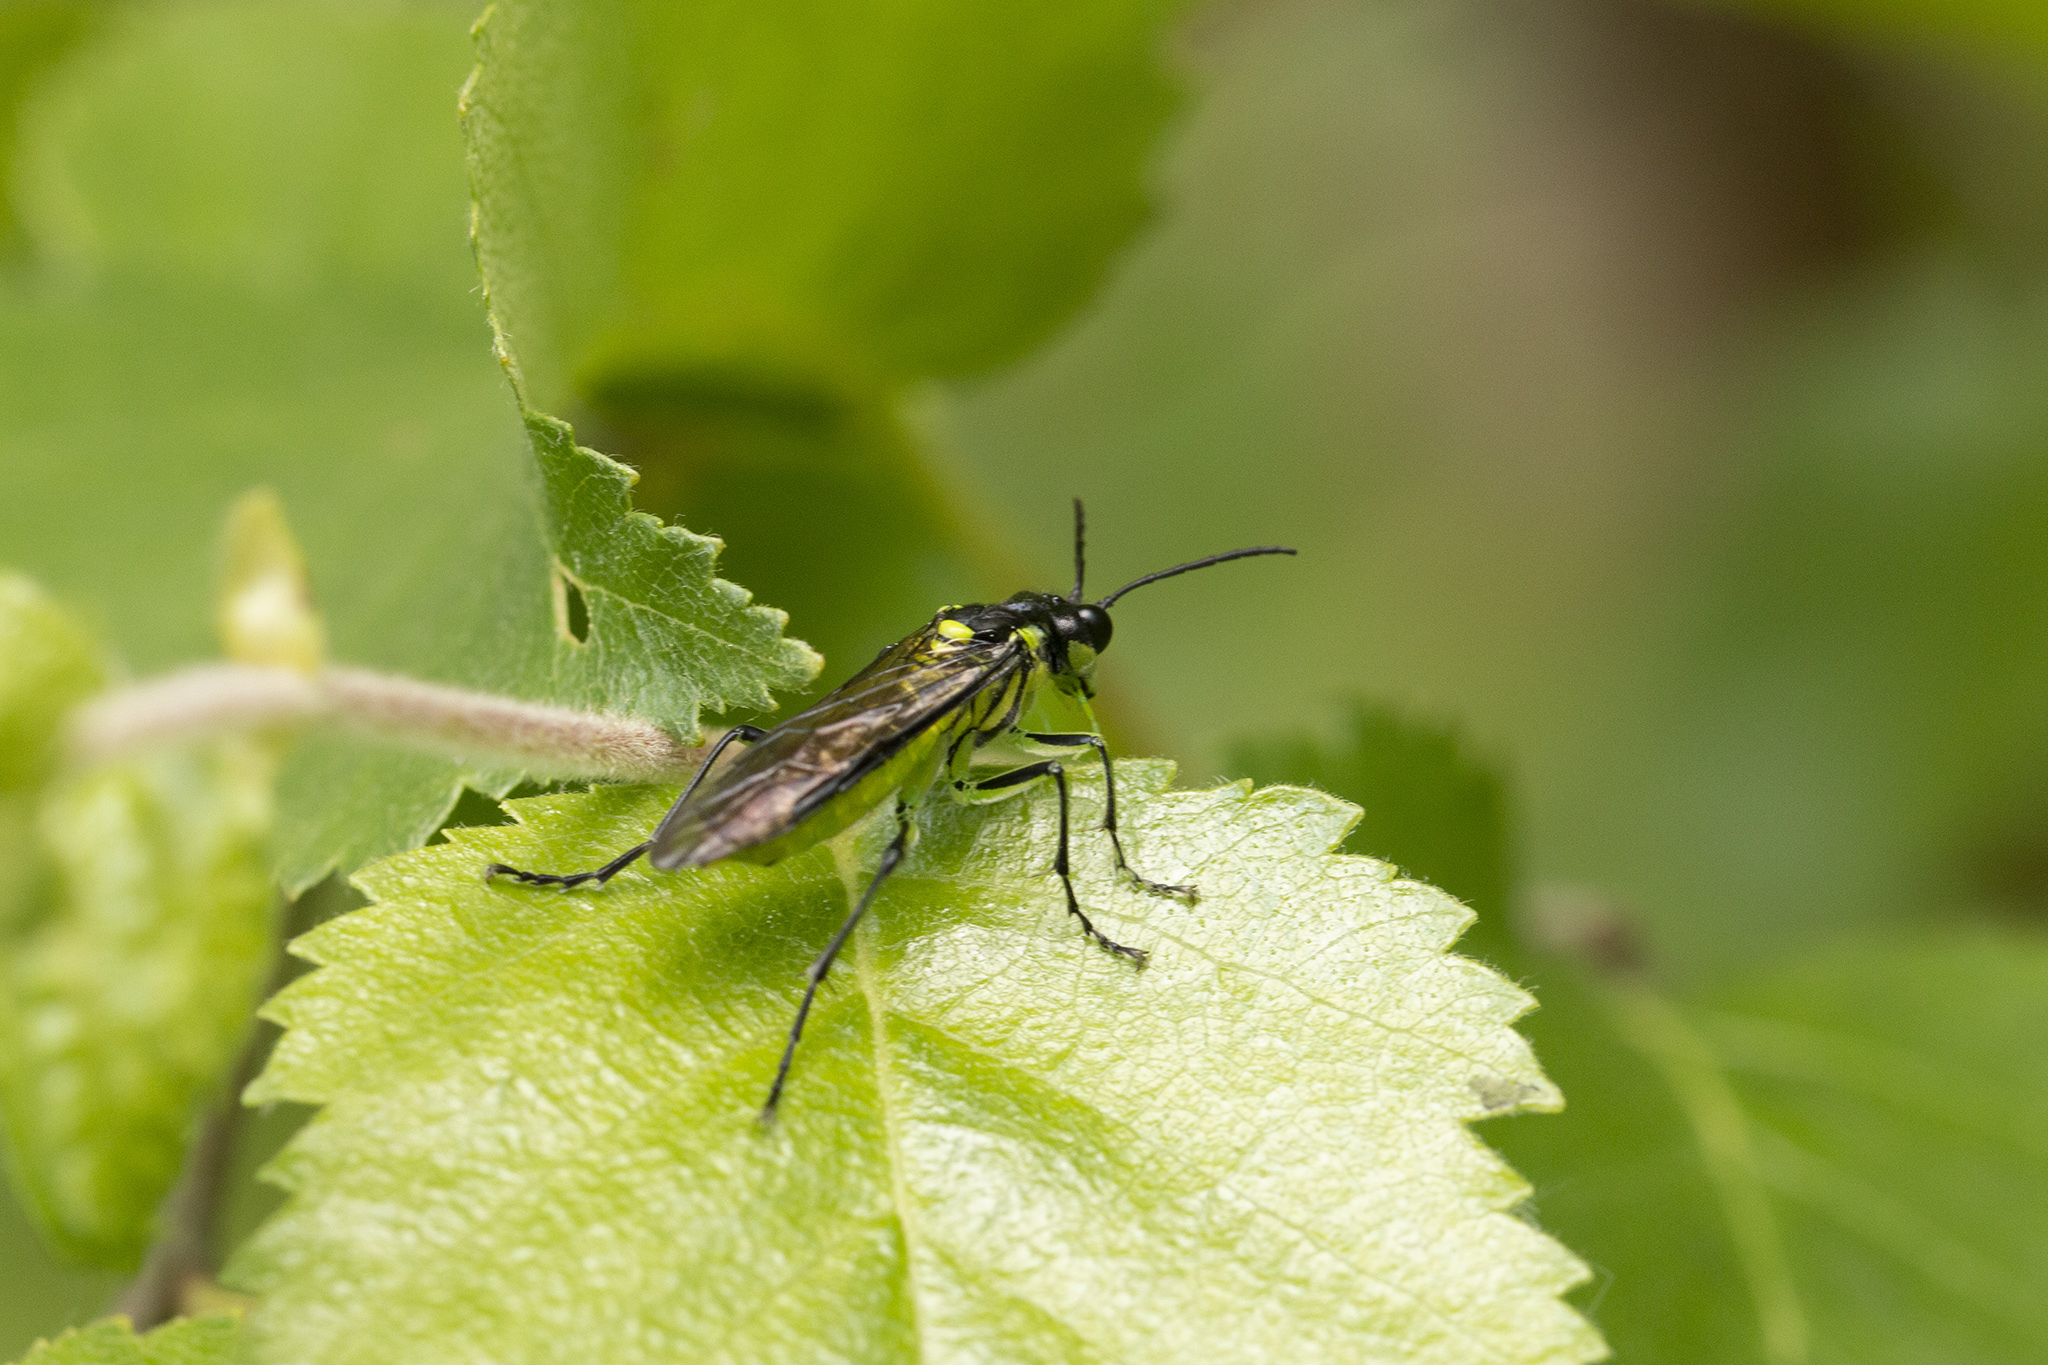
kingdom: Animalia
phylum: Arthropoda
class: Insecta
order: Hymenoptera
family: Tenthredinidae
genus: Tenthredo
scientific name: Tenthredo mesomela
